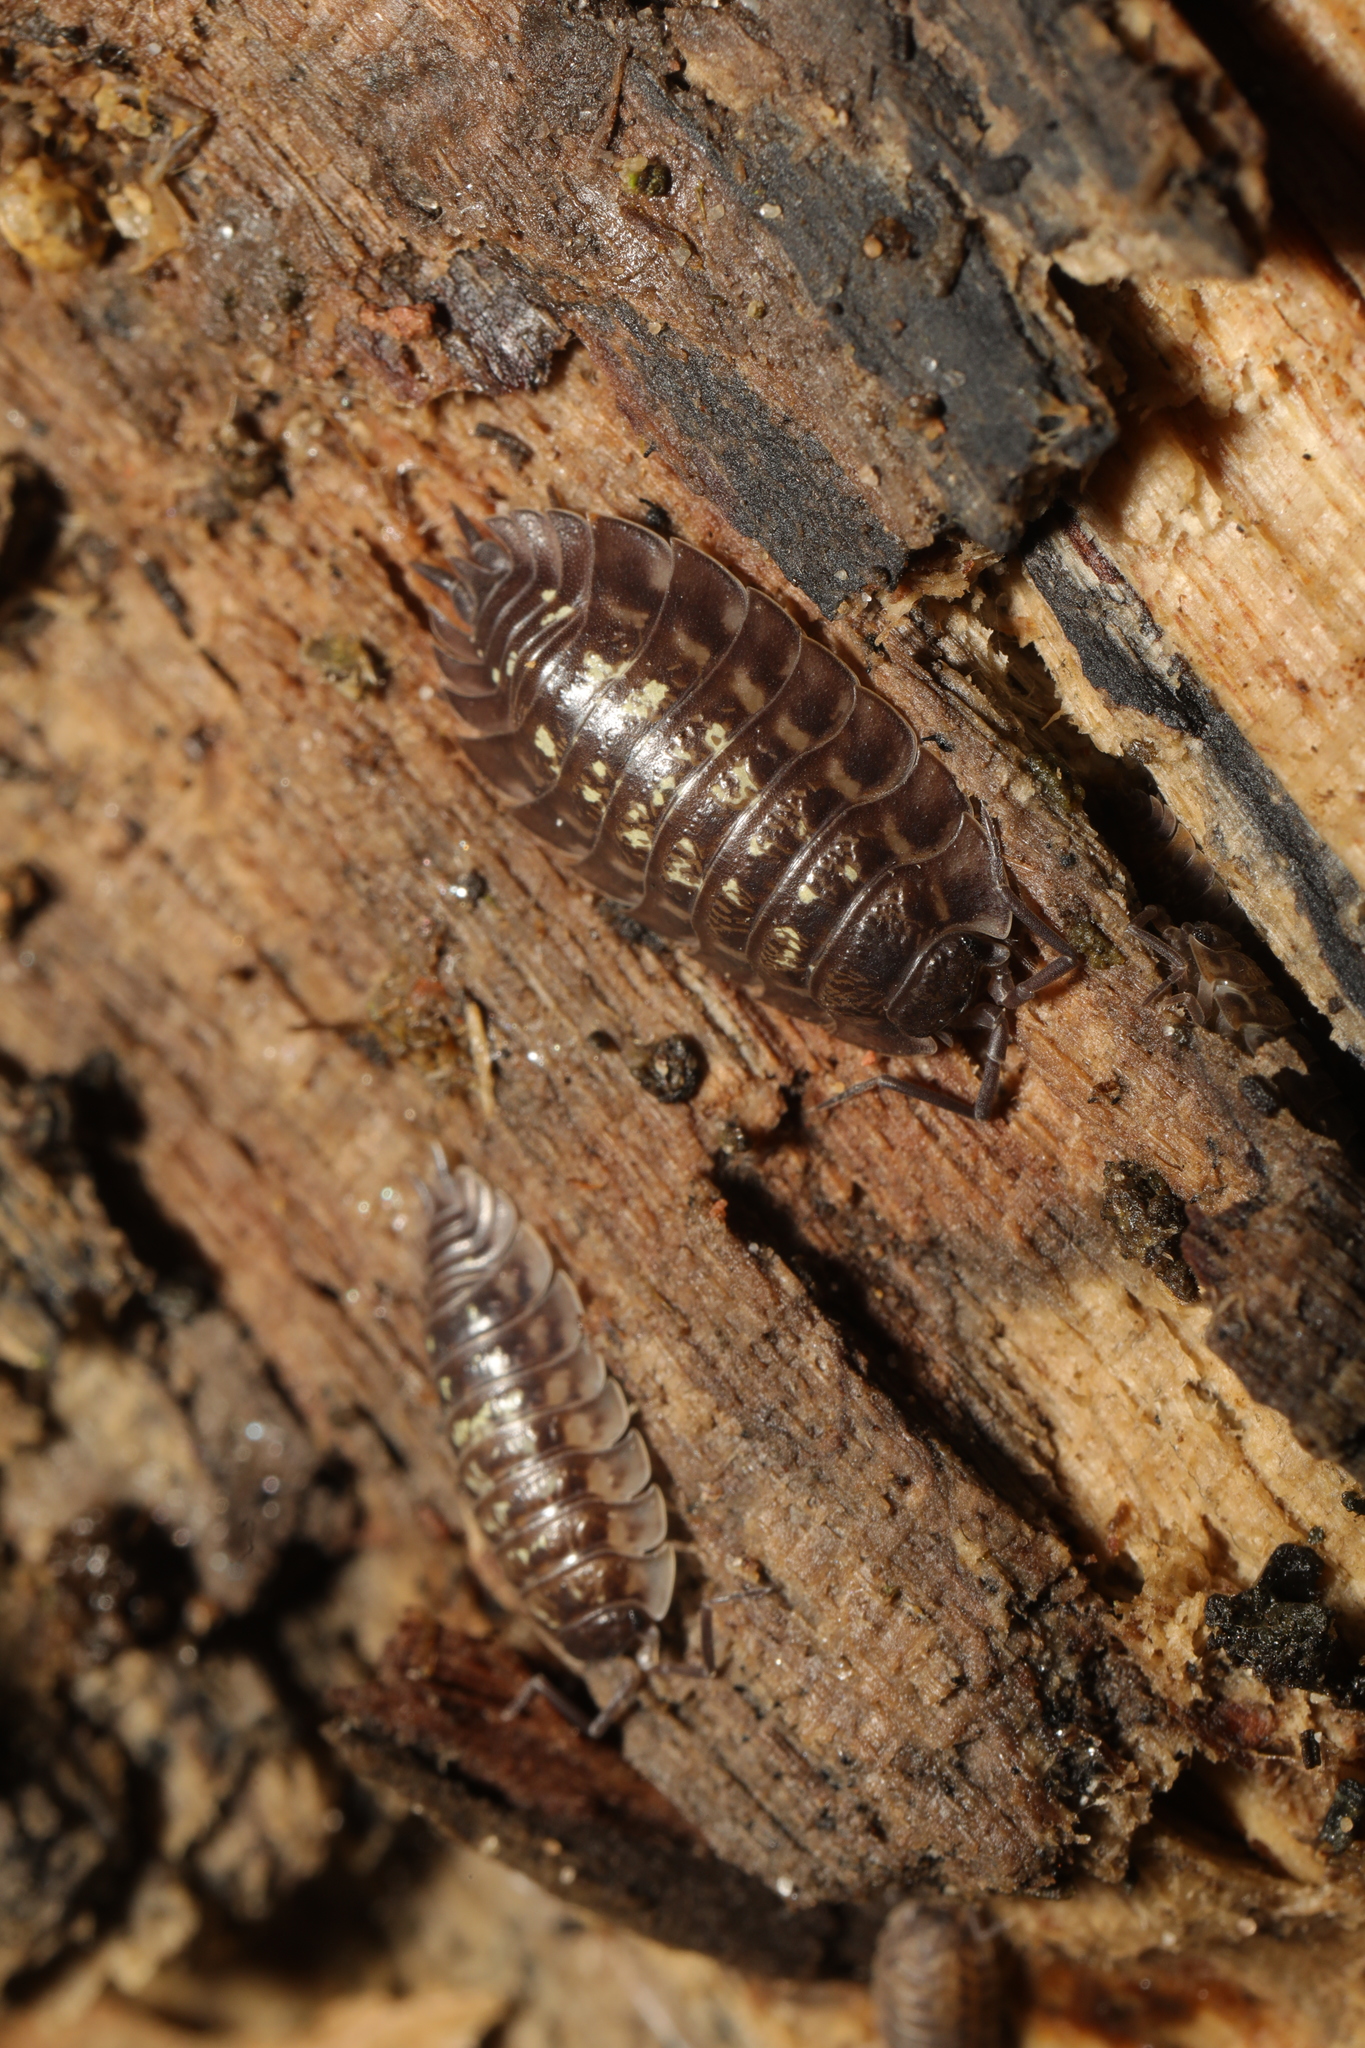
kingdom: Animalia
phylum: Arthropoda
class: Malacostraca
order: Isopoda
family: Oniscidae
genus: Oniscus
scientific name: Oniscus asellus
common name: Common shiny woodlouse
